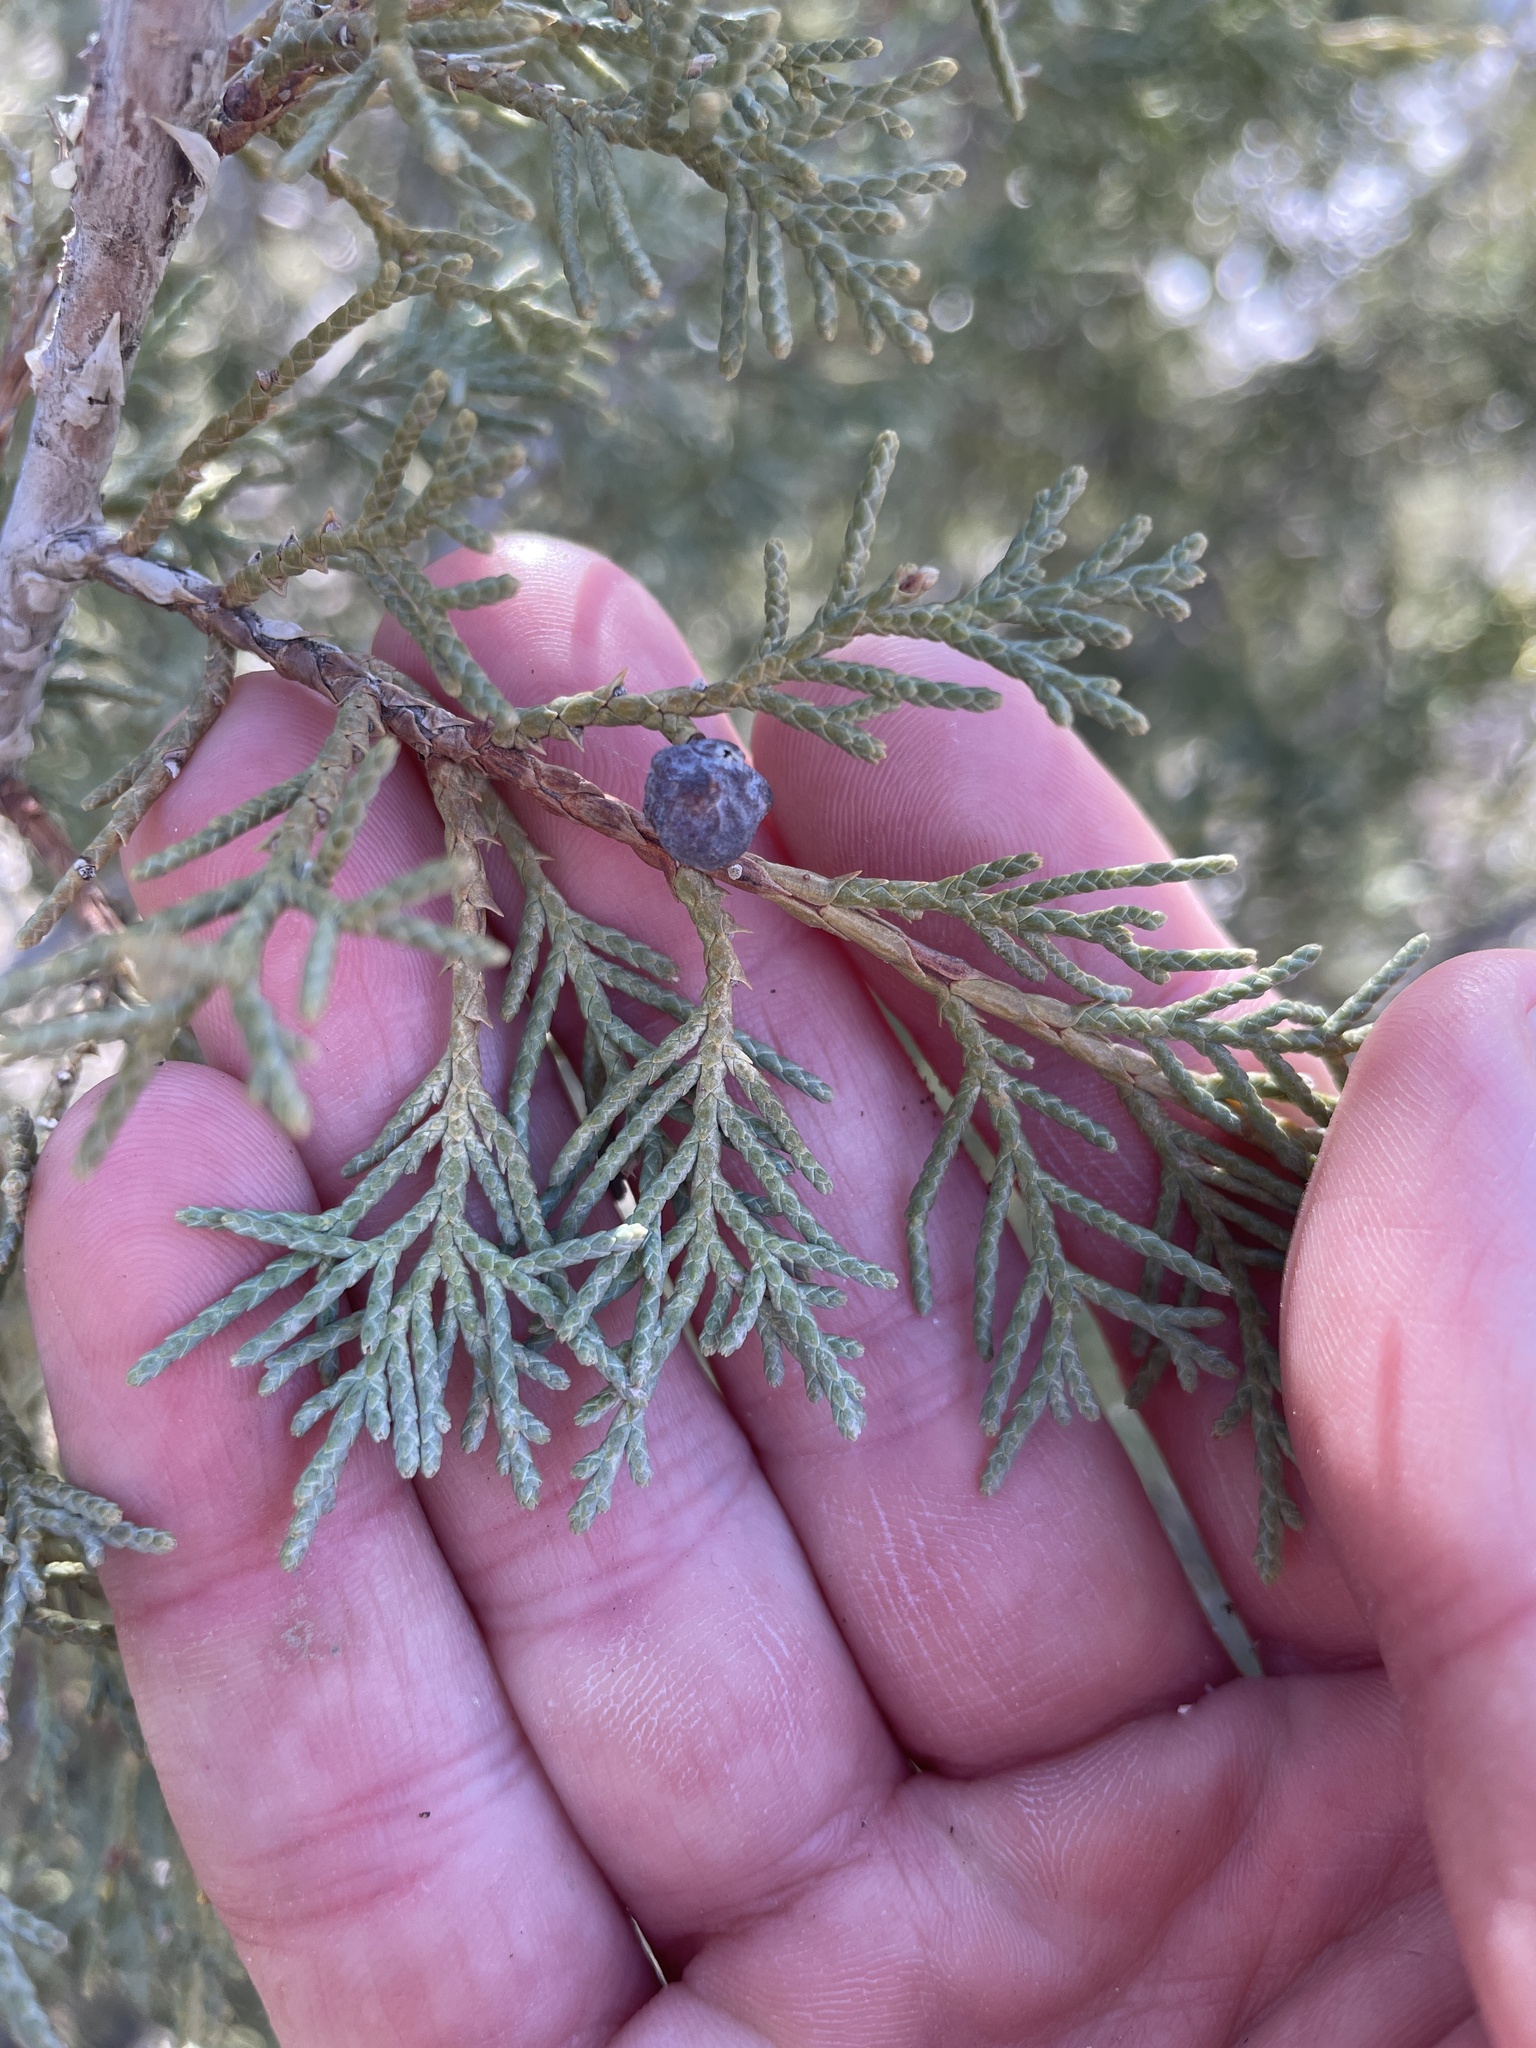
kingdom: Plantae
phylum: Tracheophyta
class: Pinopsida
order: Pinales
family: Cupressaceae
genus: Juniperus
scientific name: Juniperus scopulorum
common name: Rocky mountain juniper
